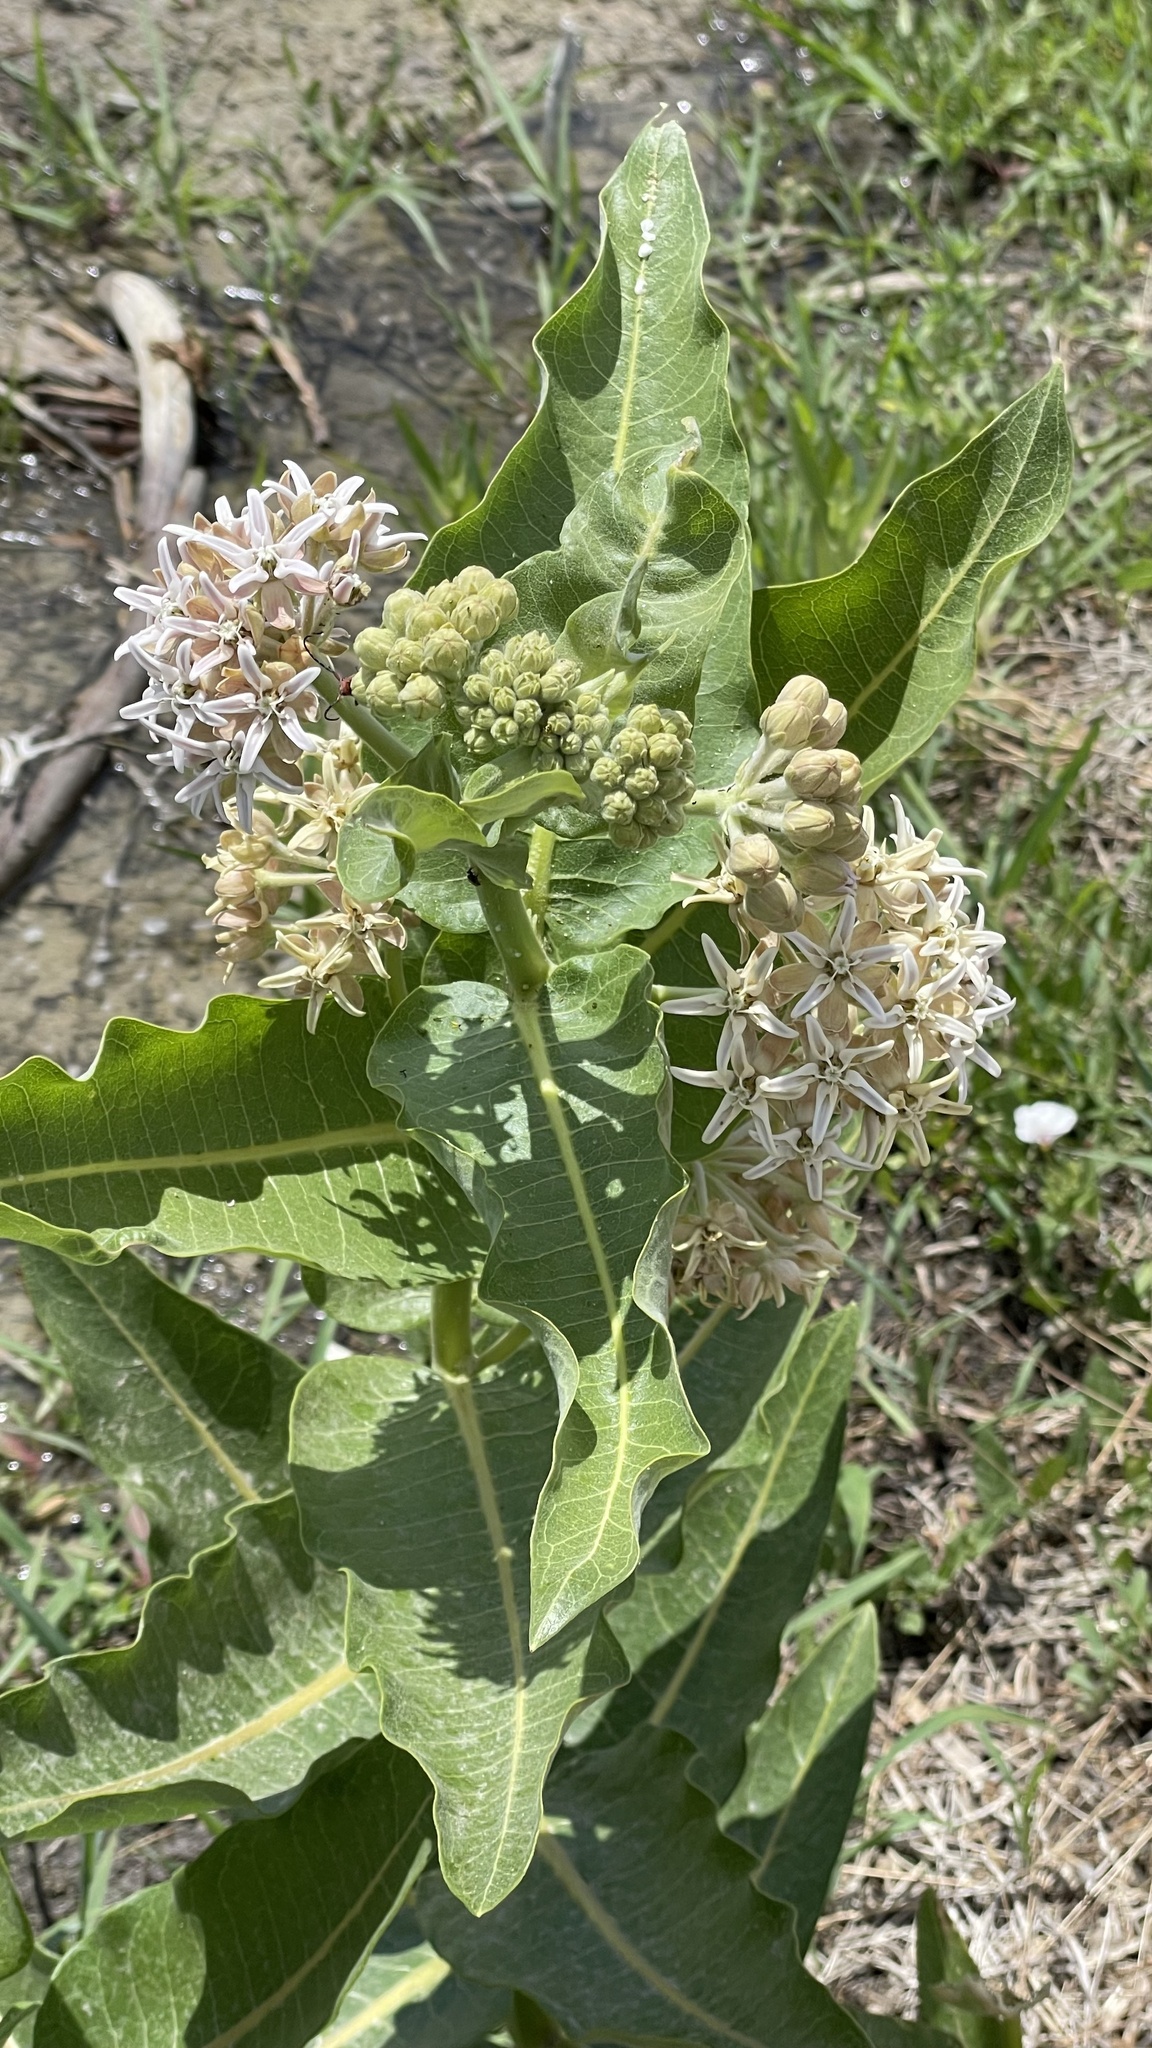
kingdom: Plantae
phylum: Tracheophyta
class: Magnoliopsida
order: Gentianales
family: Apocynaceae
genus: Asclepias
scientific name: Asclepias speciosa
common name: Showy milkweed
